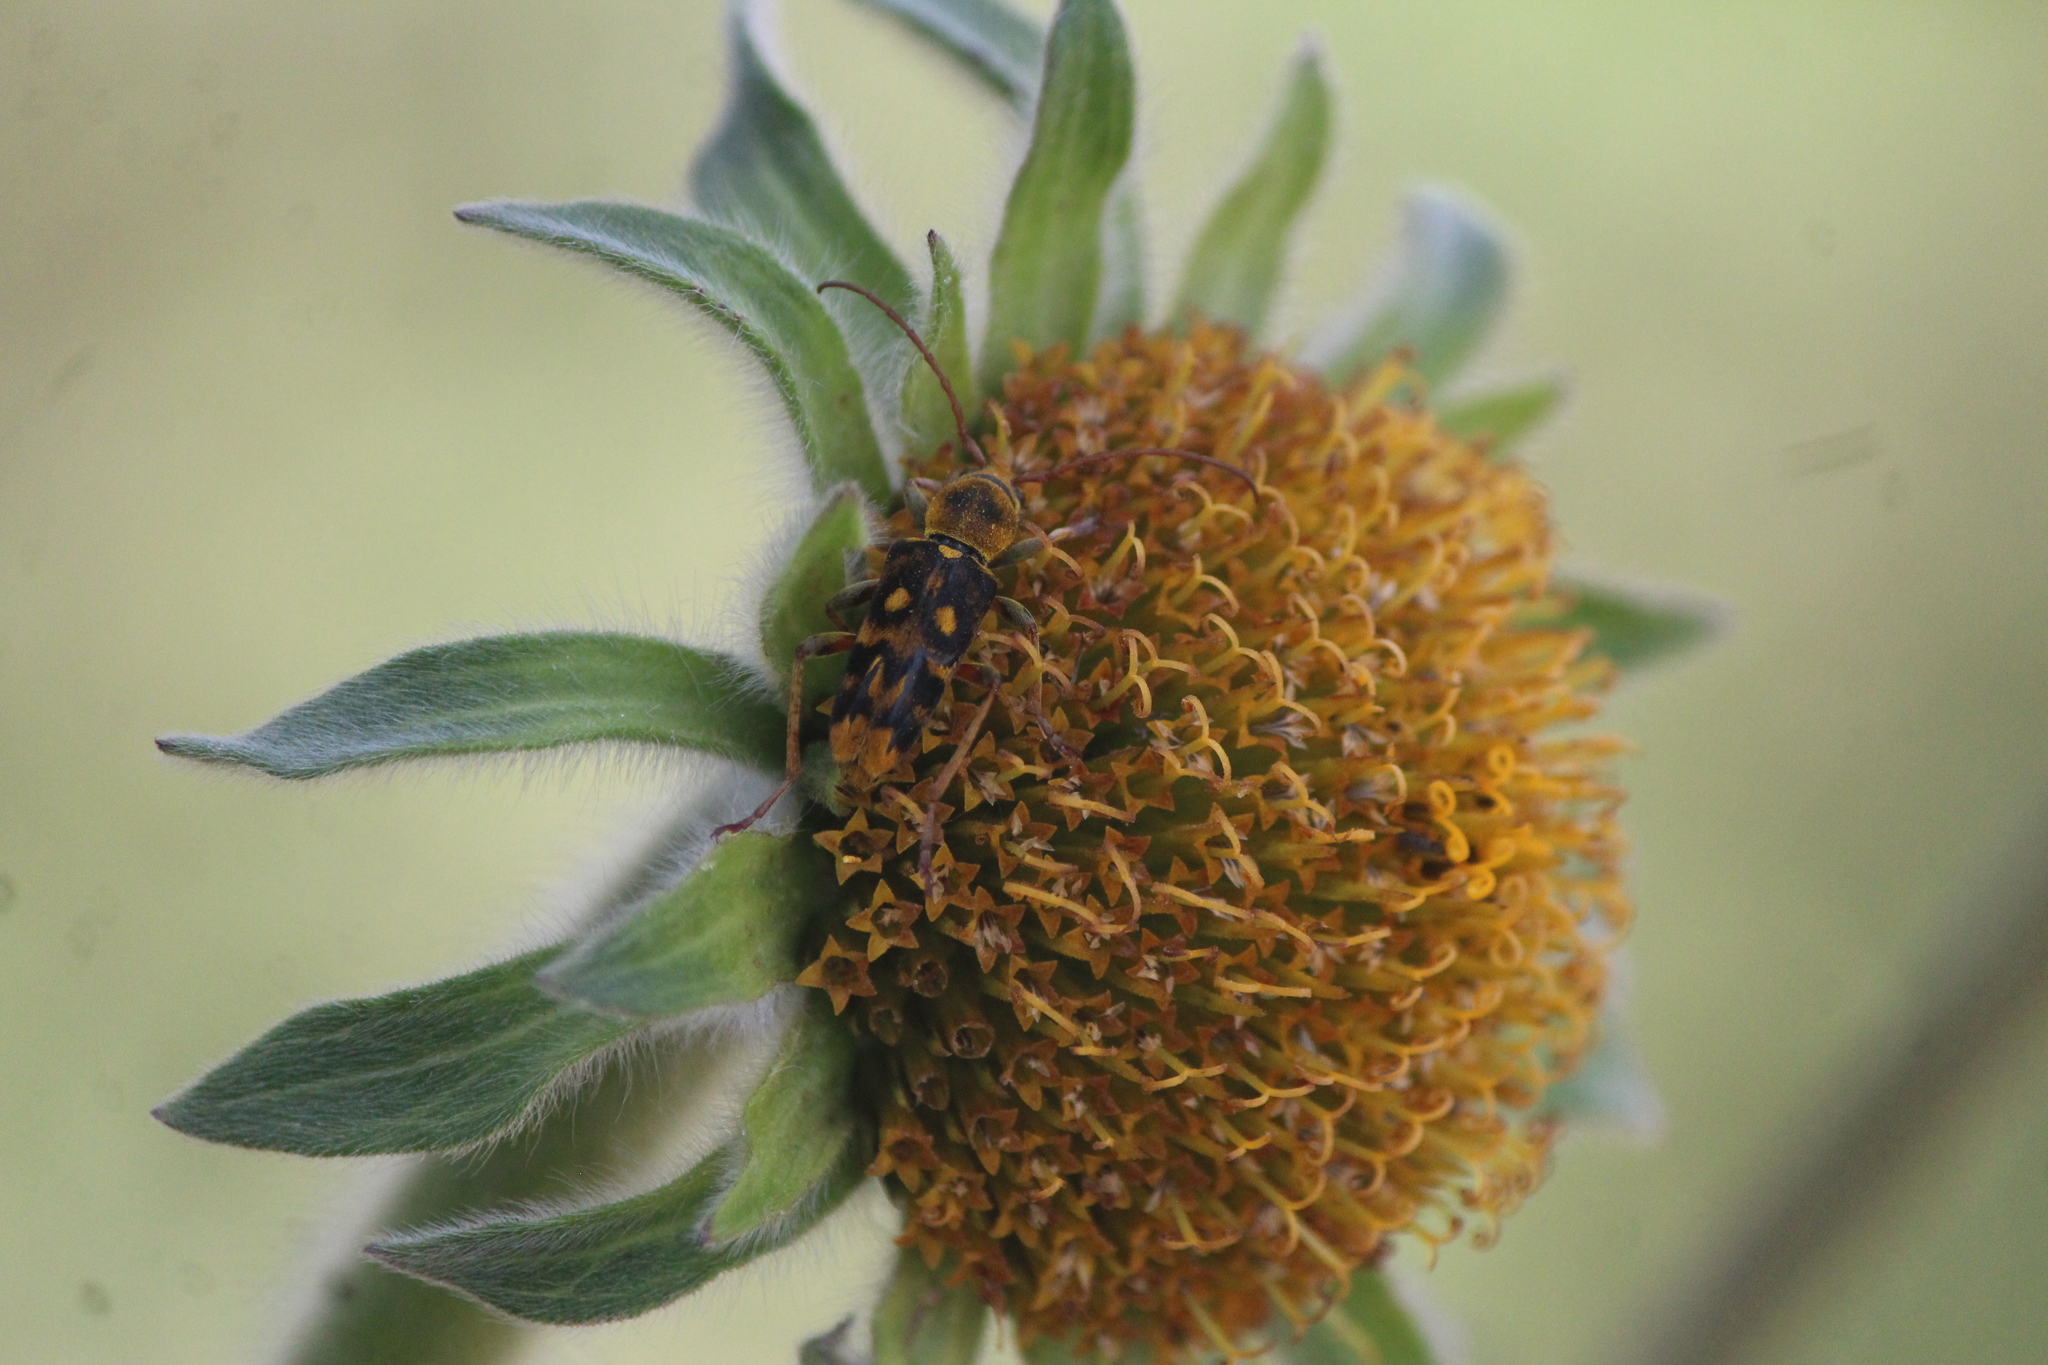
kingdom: Animalia
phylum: Arthropoda
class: Insecta
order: Coleoptera
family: Cerambycidae
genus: Ochraethes
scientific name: Ochraethes sommeri
